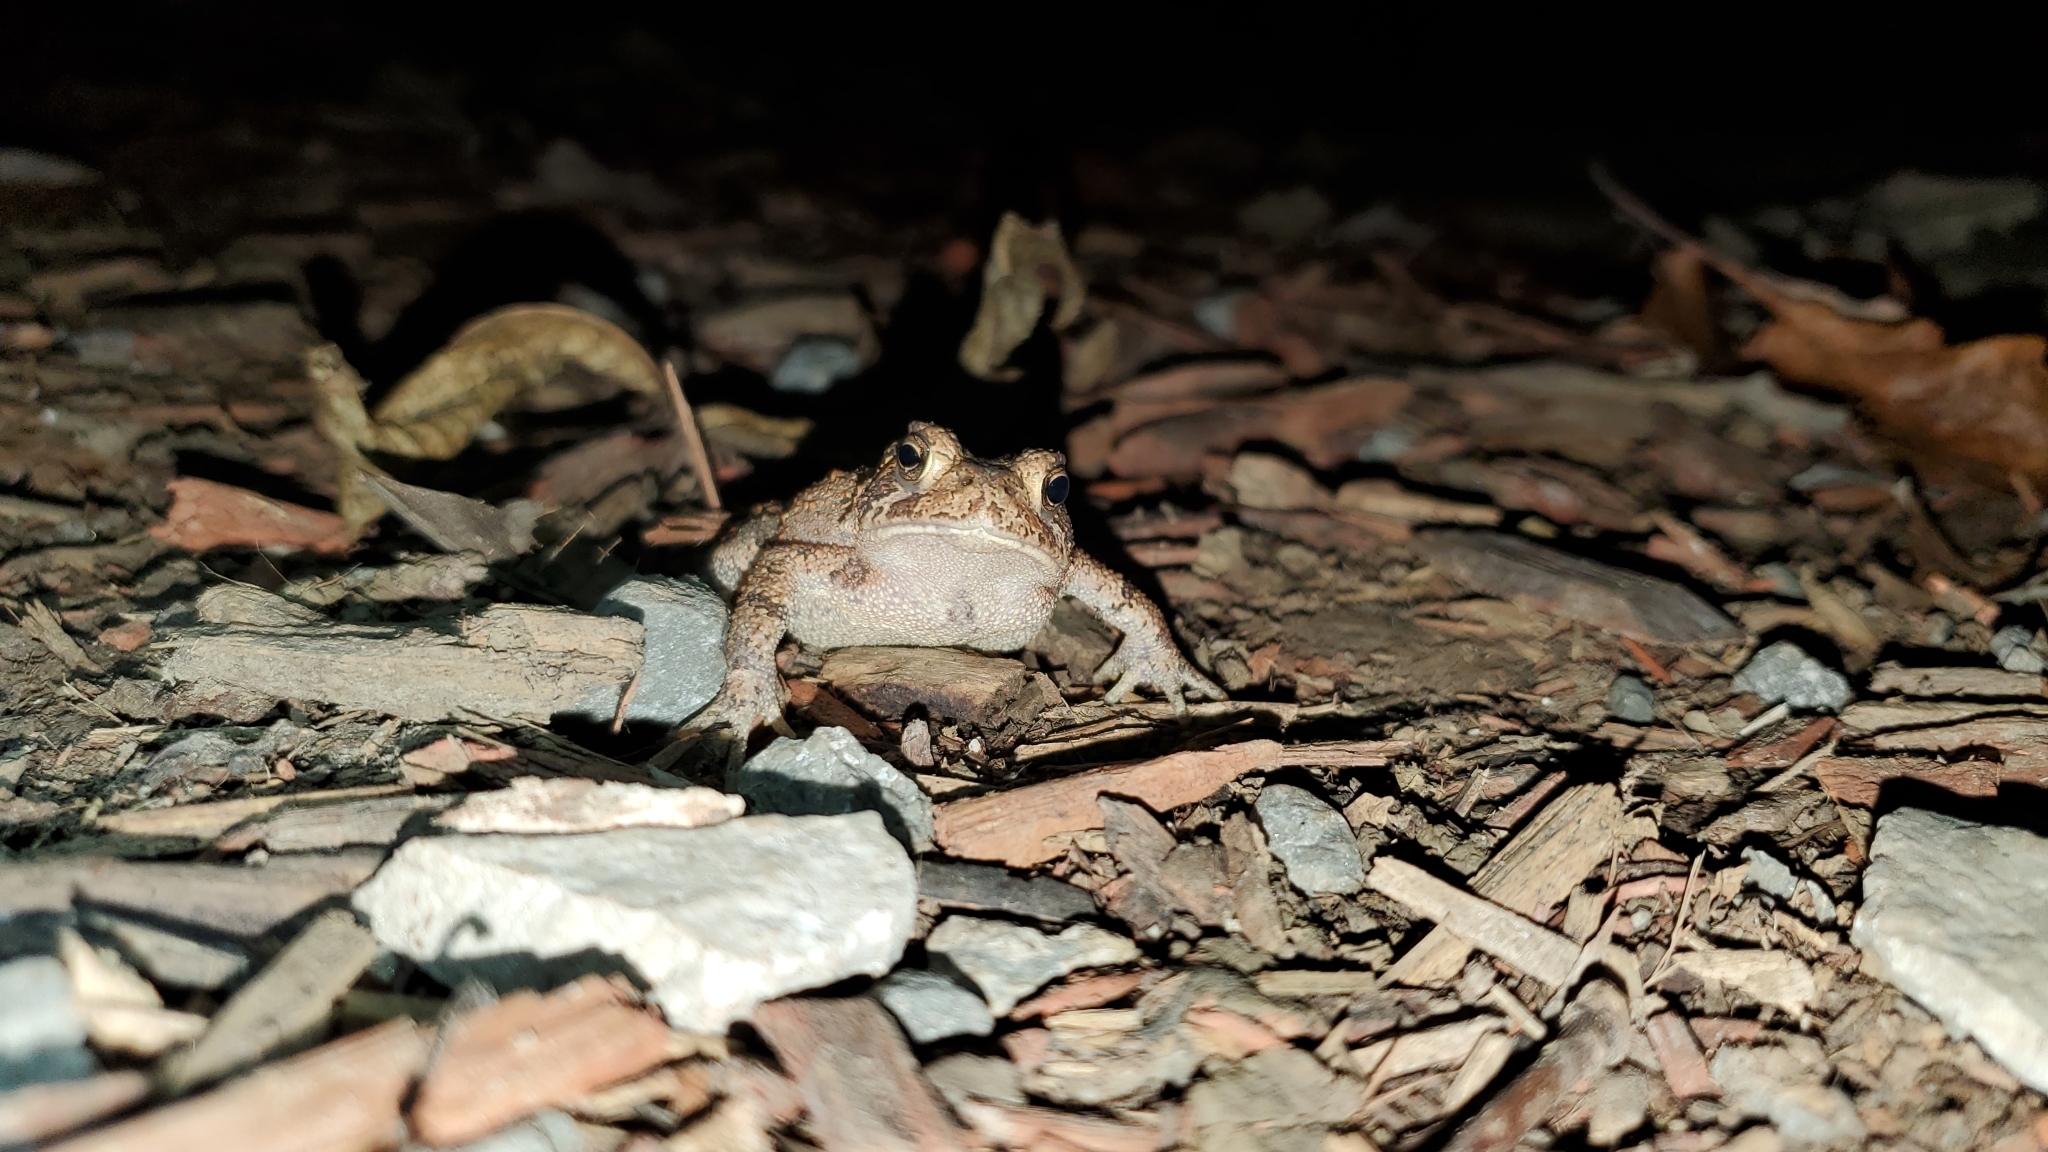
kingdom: Animalia
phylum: Chordata
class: Amphibia
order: Anura
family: Bufonidae
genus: Anaxyrus
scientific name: Anaxyrus americanus
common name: American toad
